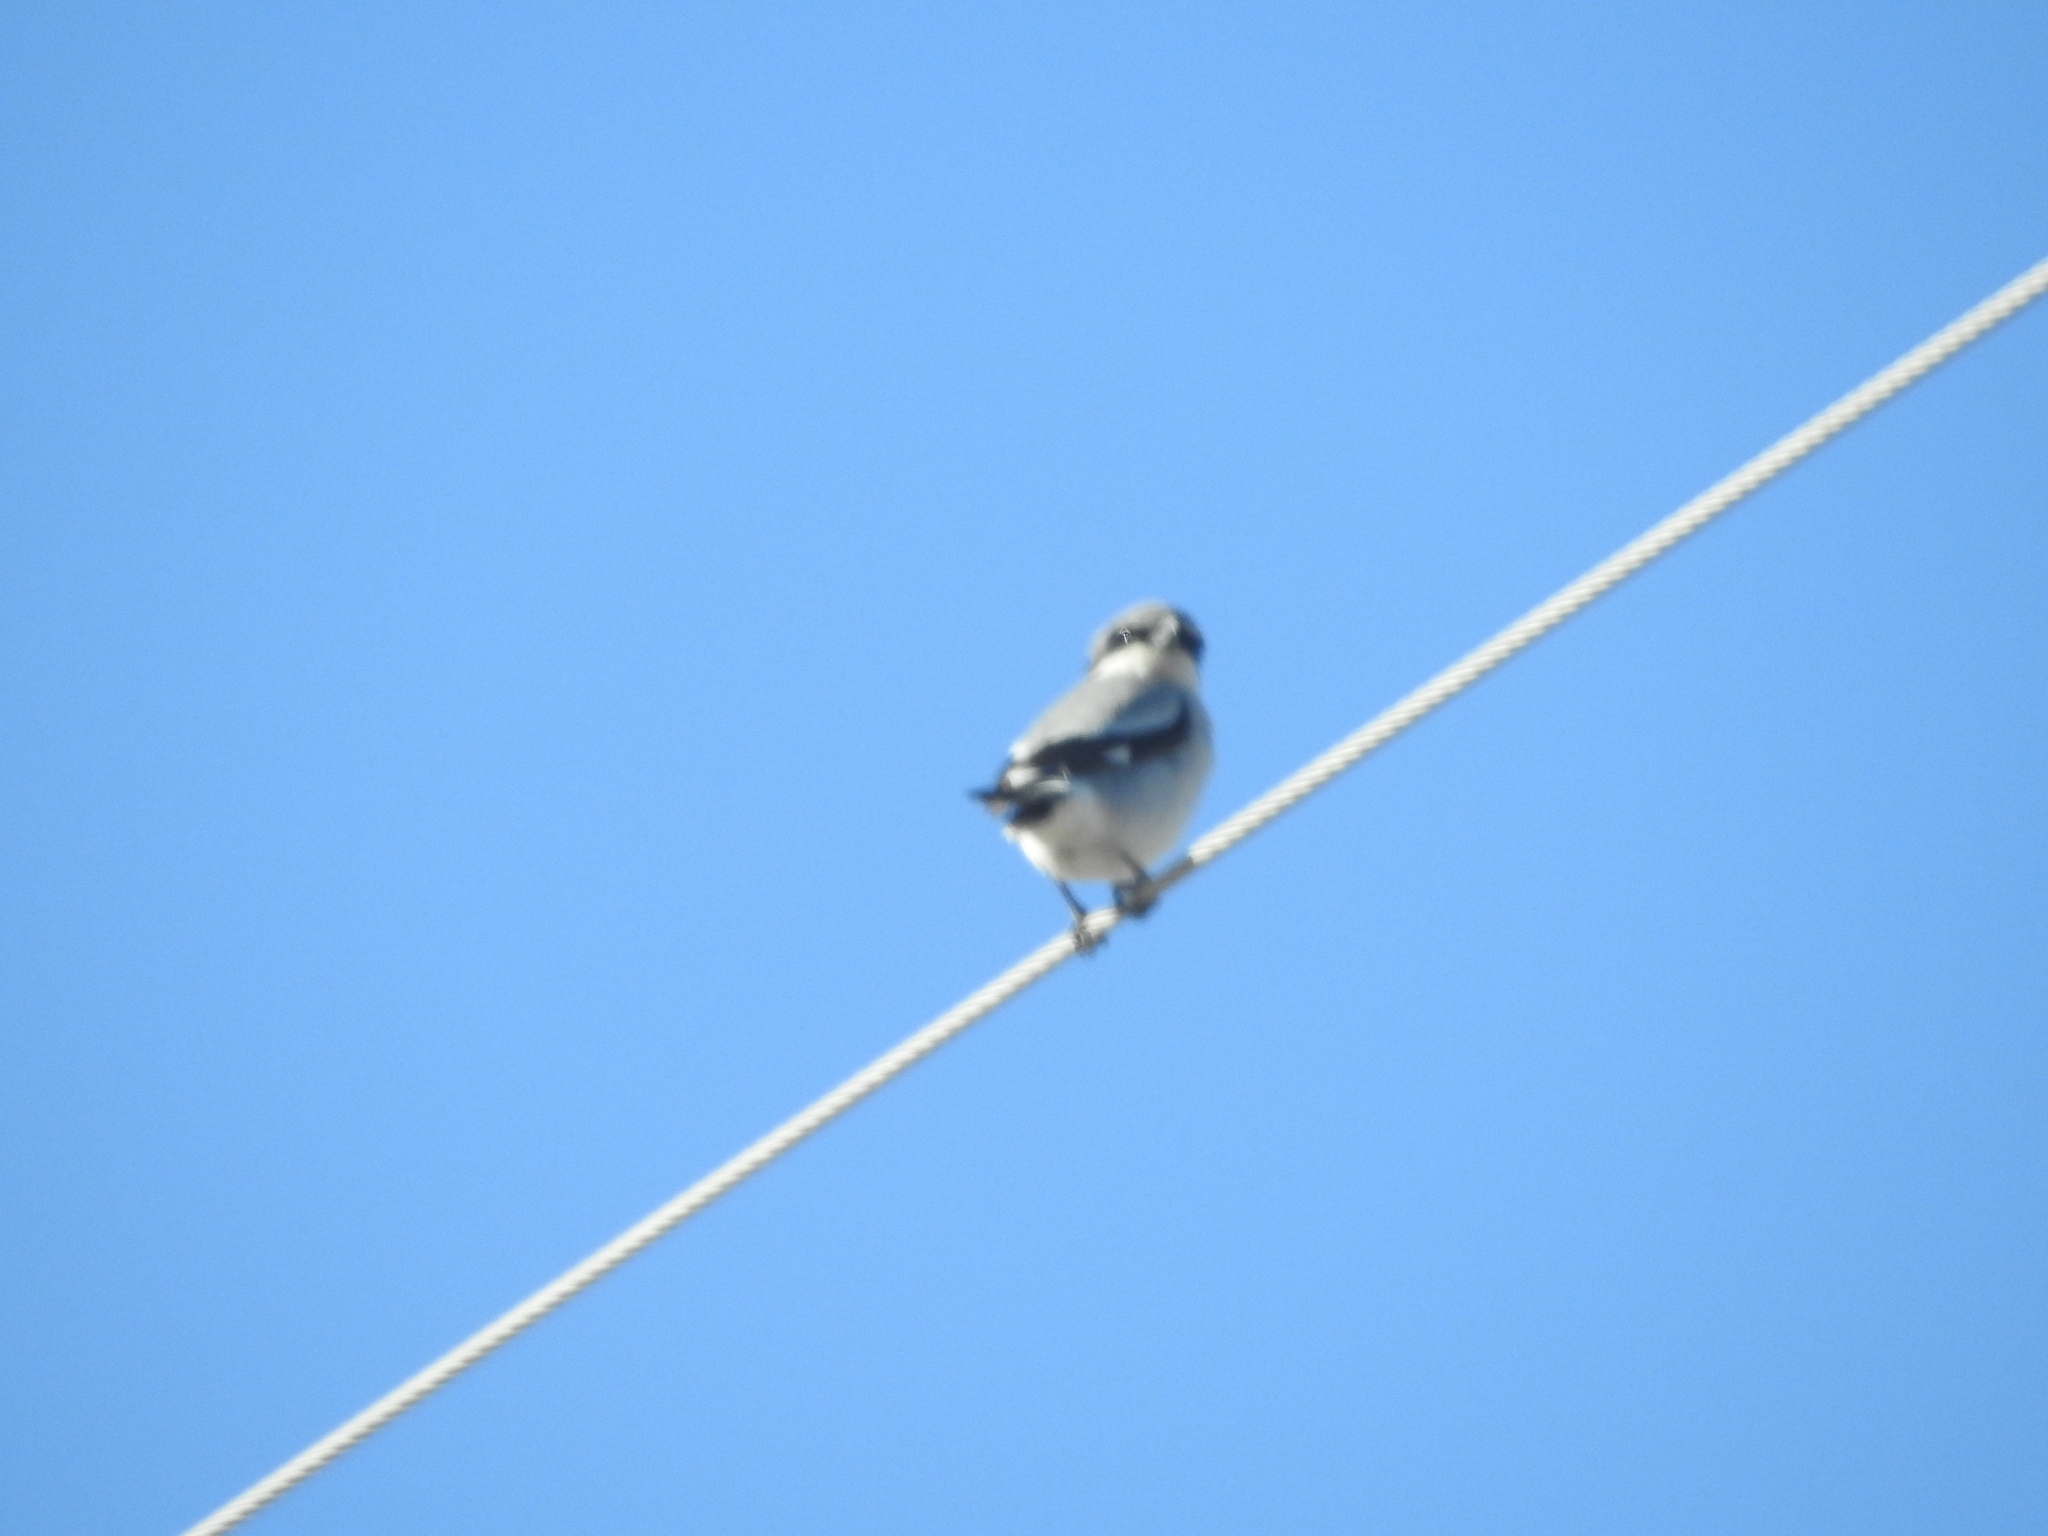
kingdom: Animalia
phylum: Chordata
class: Aves
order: Passeriformes
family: Laniidae
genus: Lanius
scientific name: Lanius ludovicianus
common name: Loggerhead shrike
